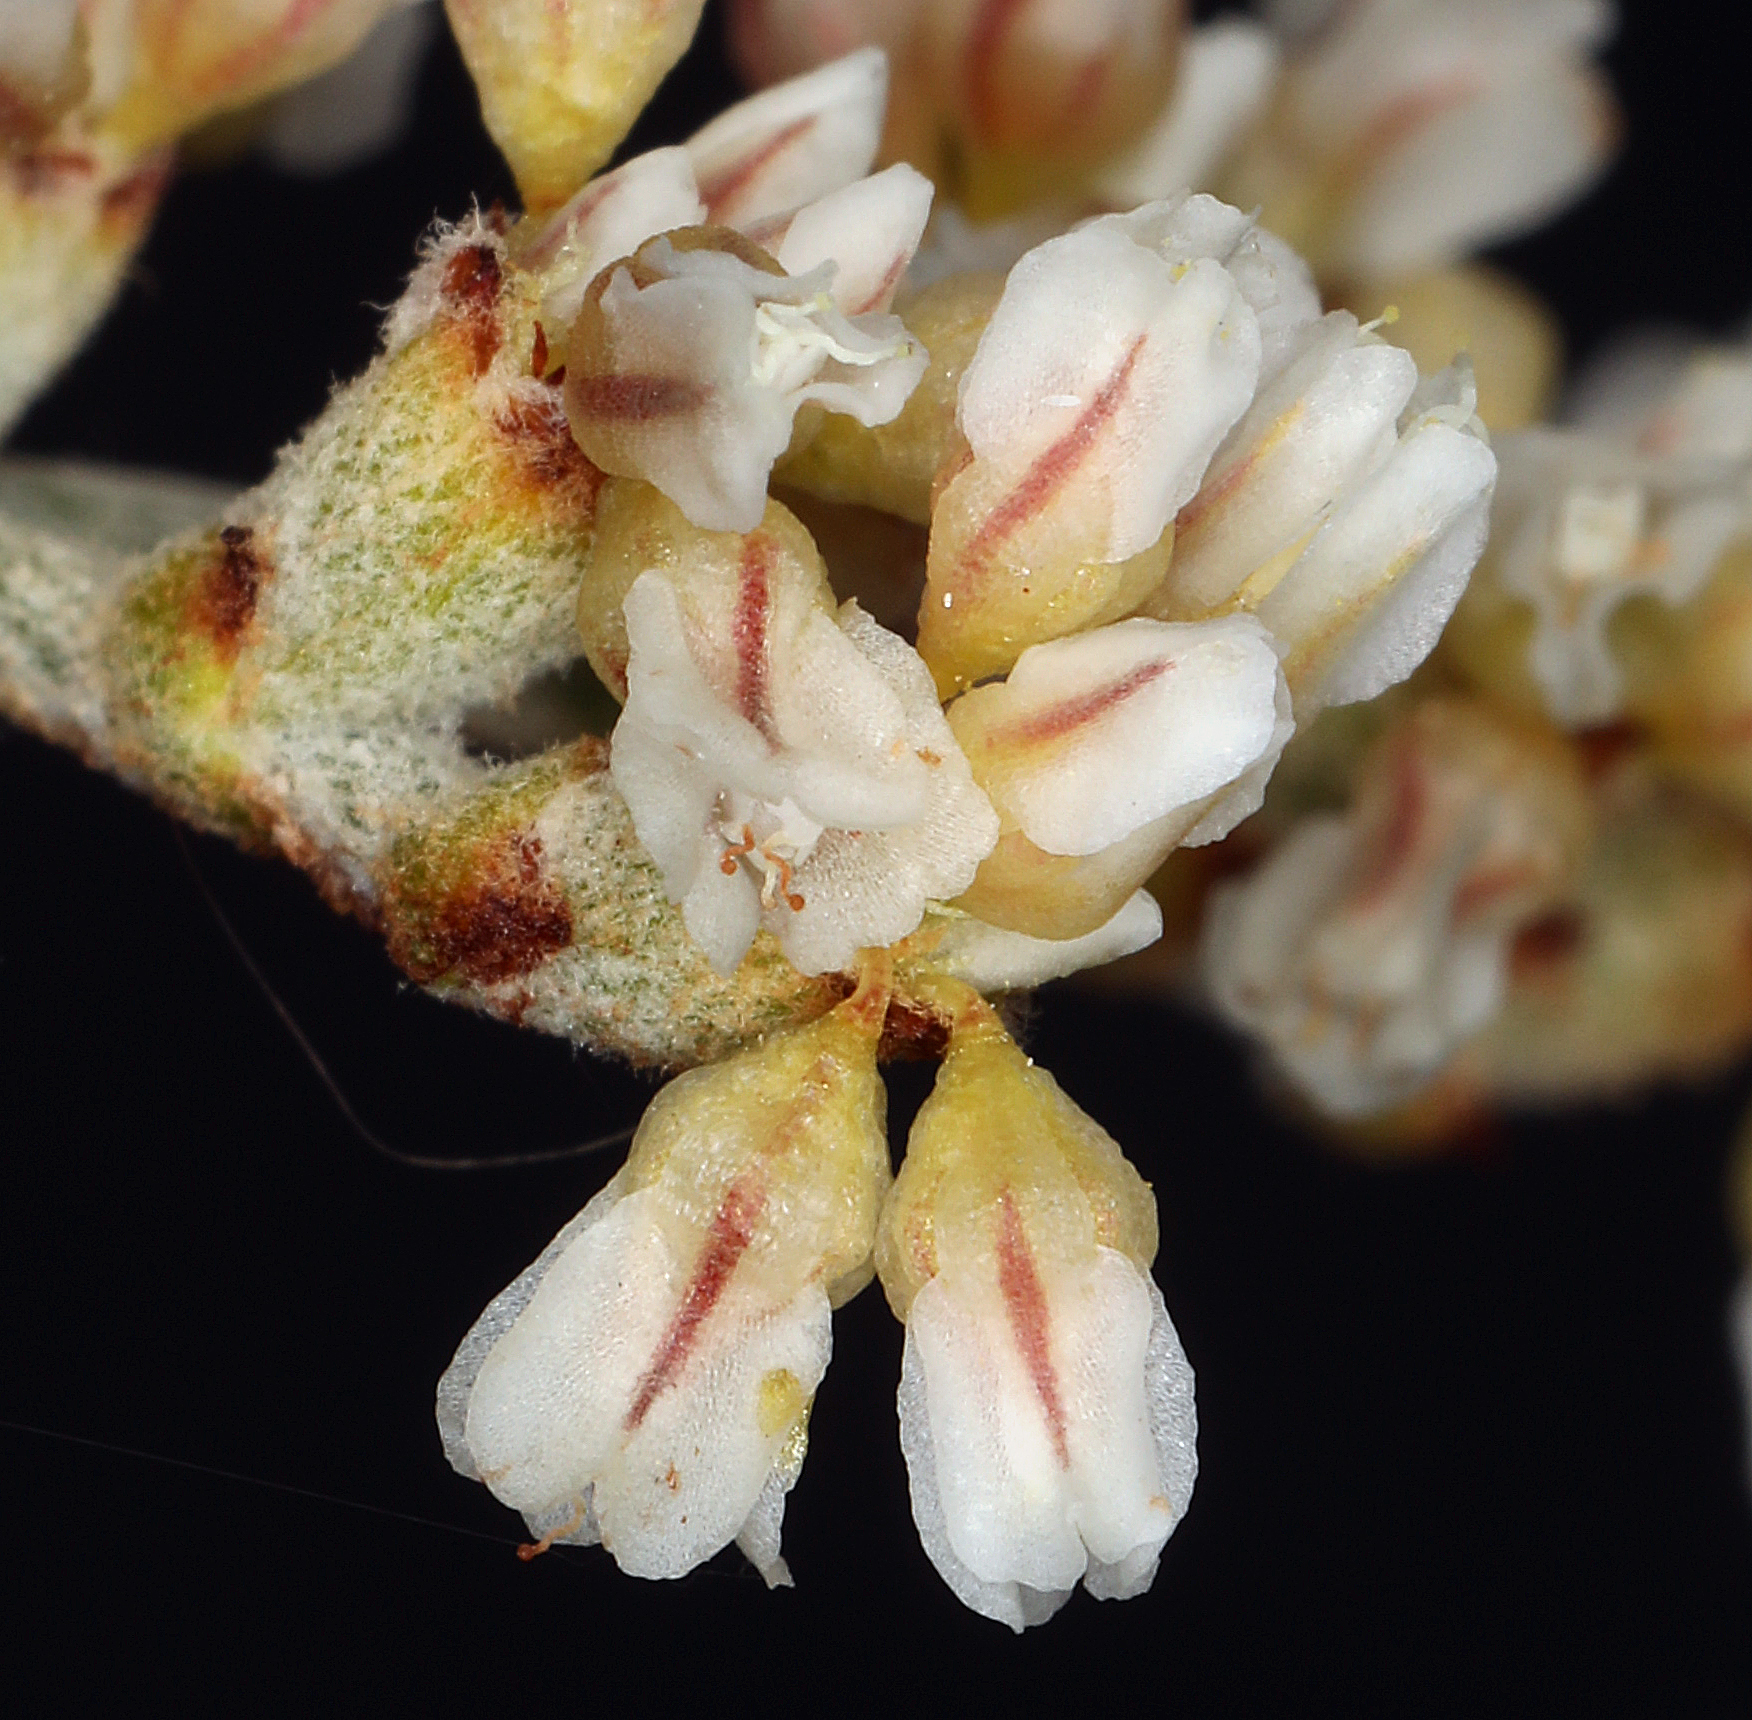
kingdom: Plantae
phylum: Tracheophyta
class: Magnoliopsida
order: Caryophyllales
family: Polygonaceae
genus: Eriogonum
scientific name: Eriogonum nummulare
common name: Kearney wild buckwheat
